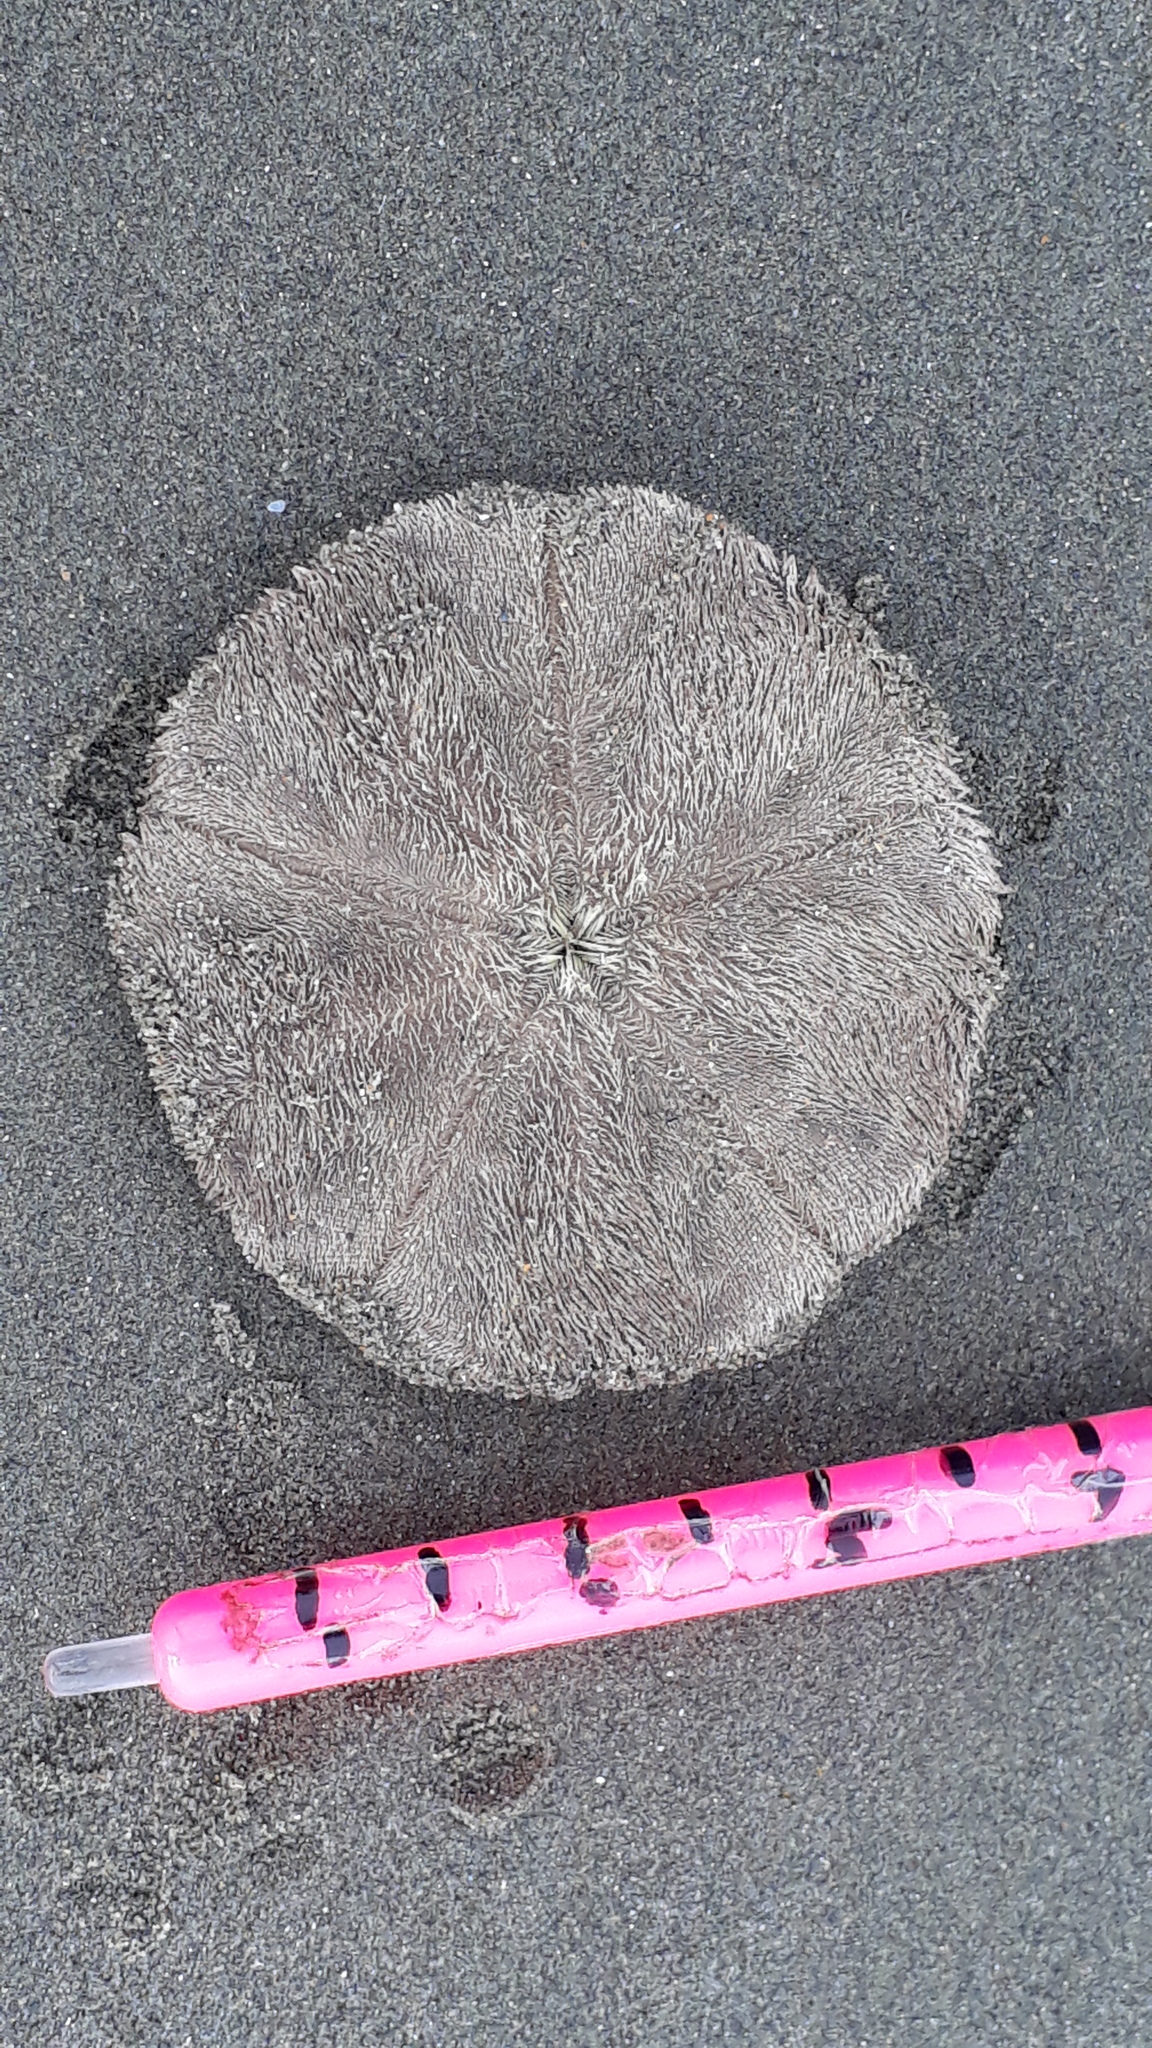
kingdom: Animalia
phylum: Echinodermata
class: Echinoidea
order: Clypeasteroida
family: Clypeasteridae
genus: Fellaster
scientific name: Fellaster zelandiae
